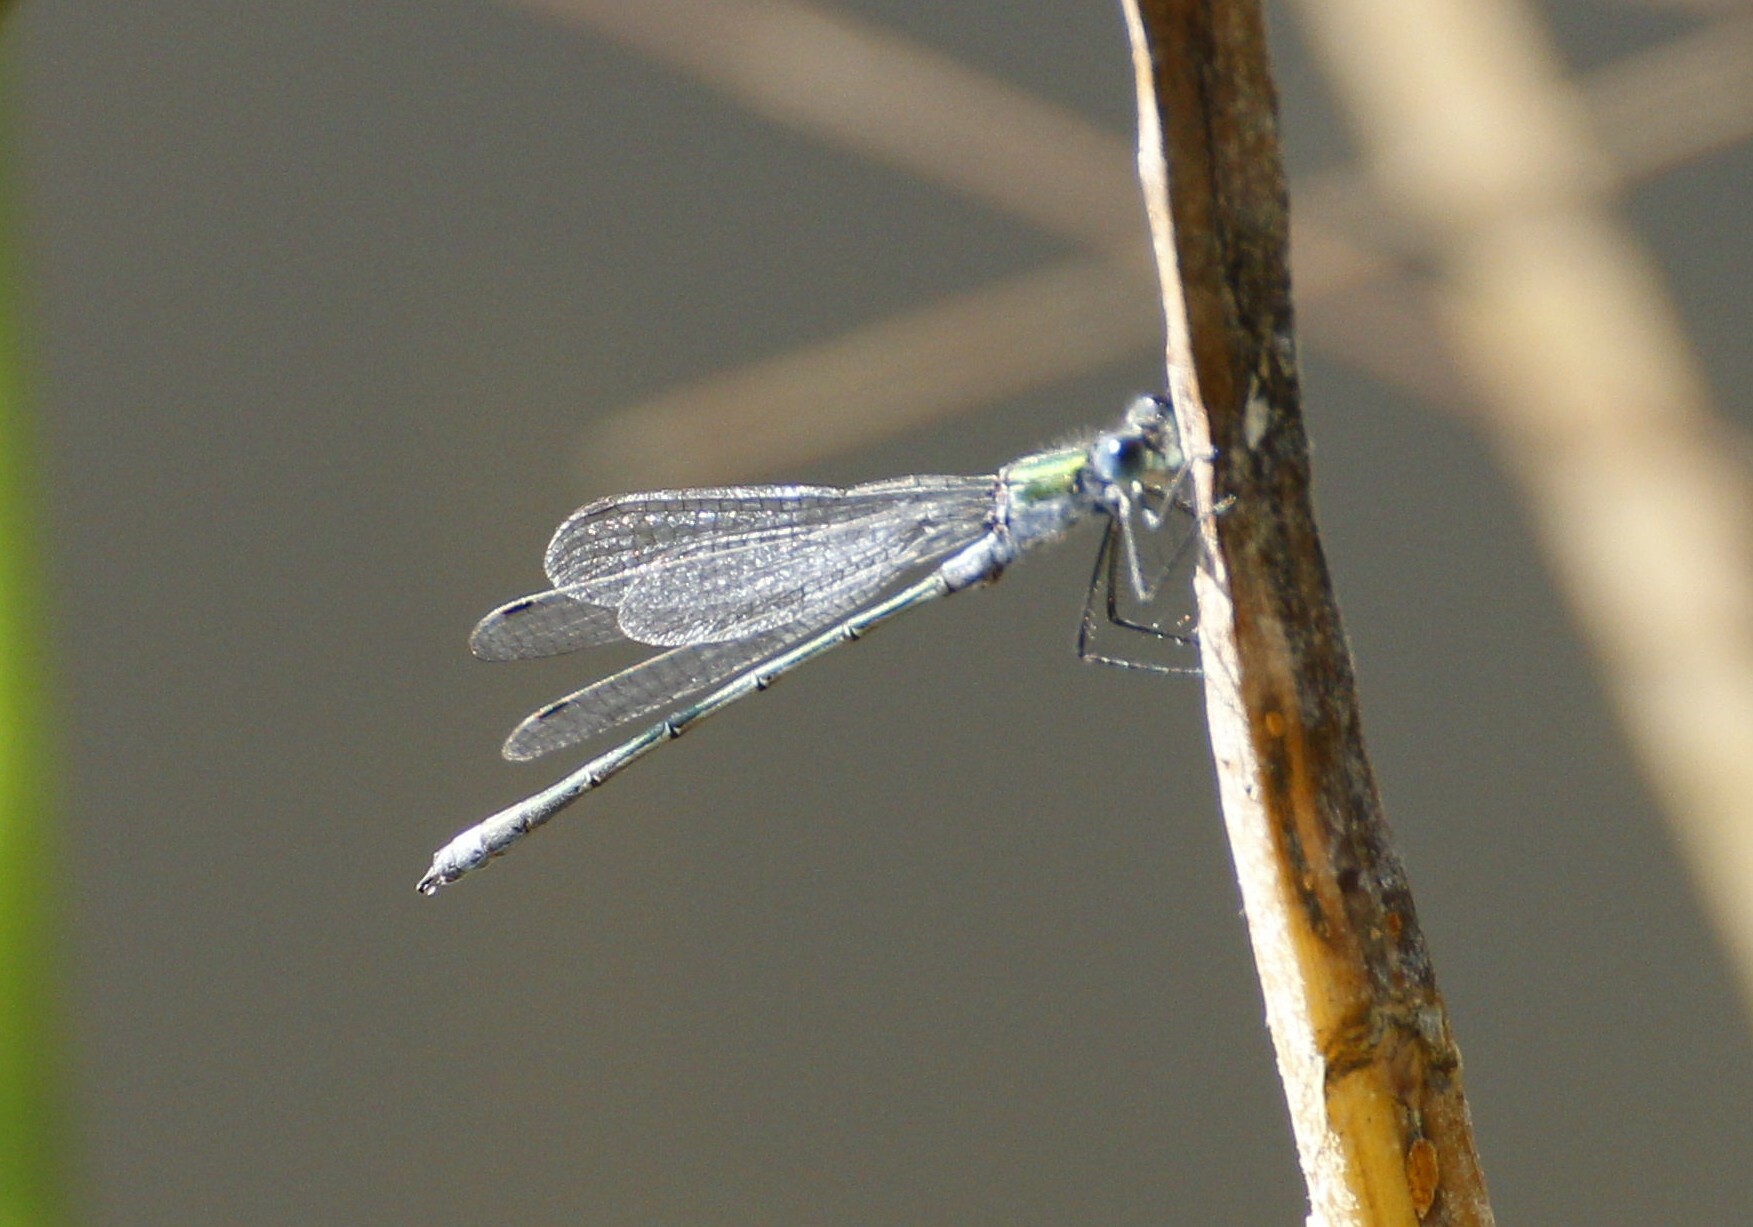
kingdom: Animalia
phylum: Arthropoda
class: Insecta
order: Odonata
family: Lestidae
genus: Lestes
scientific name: Lestes sponsa
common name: Common spreadwing
